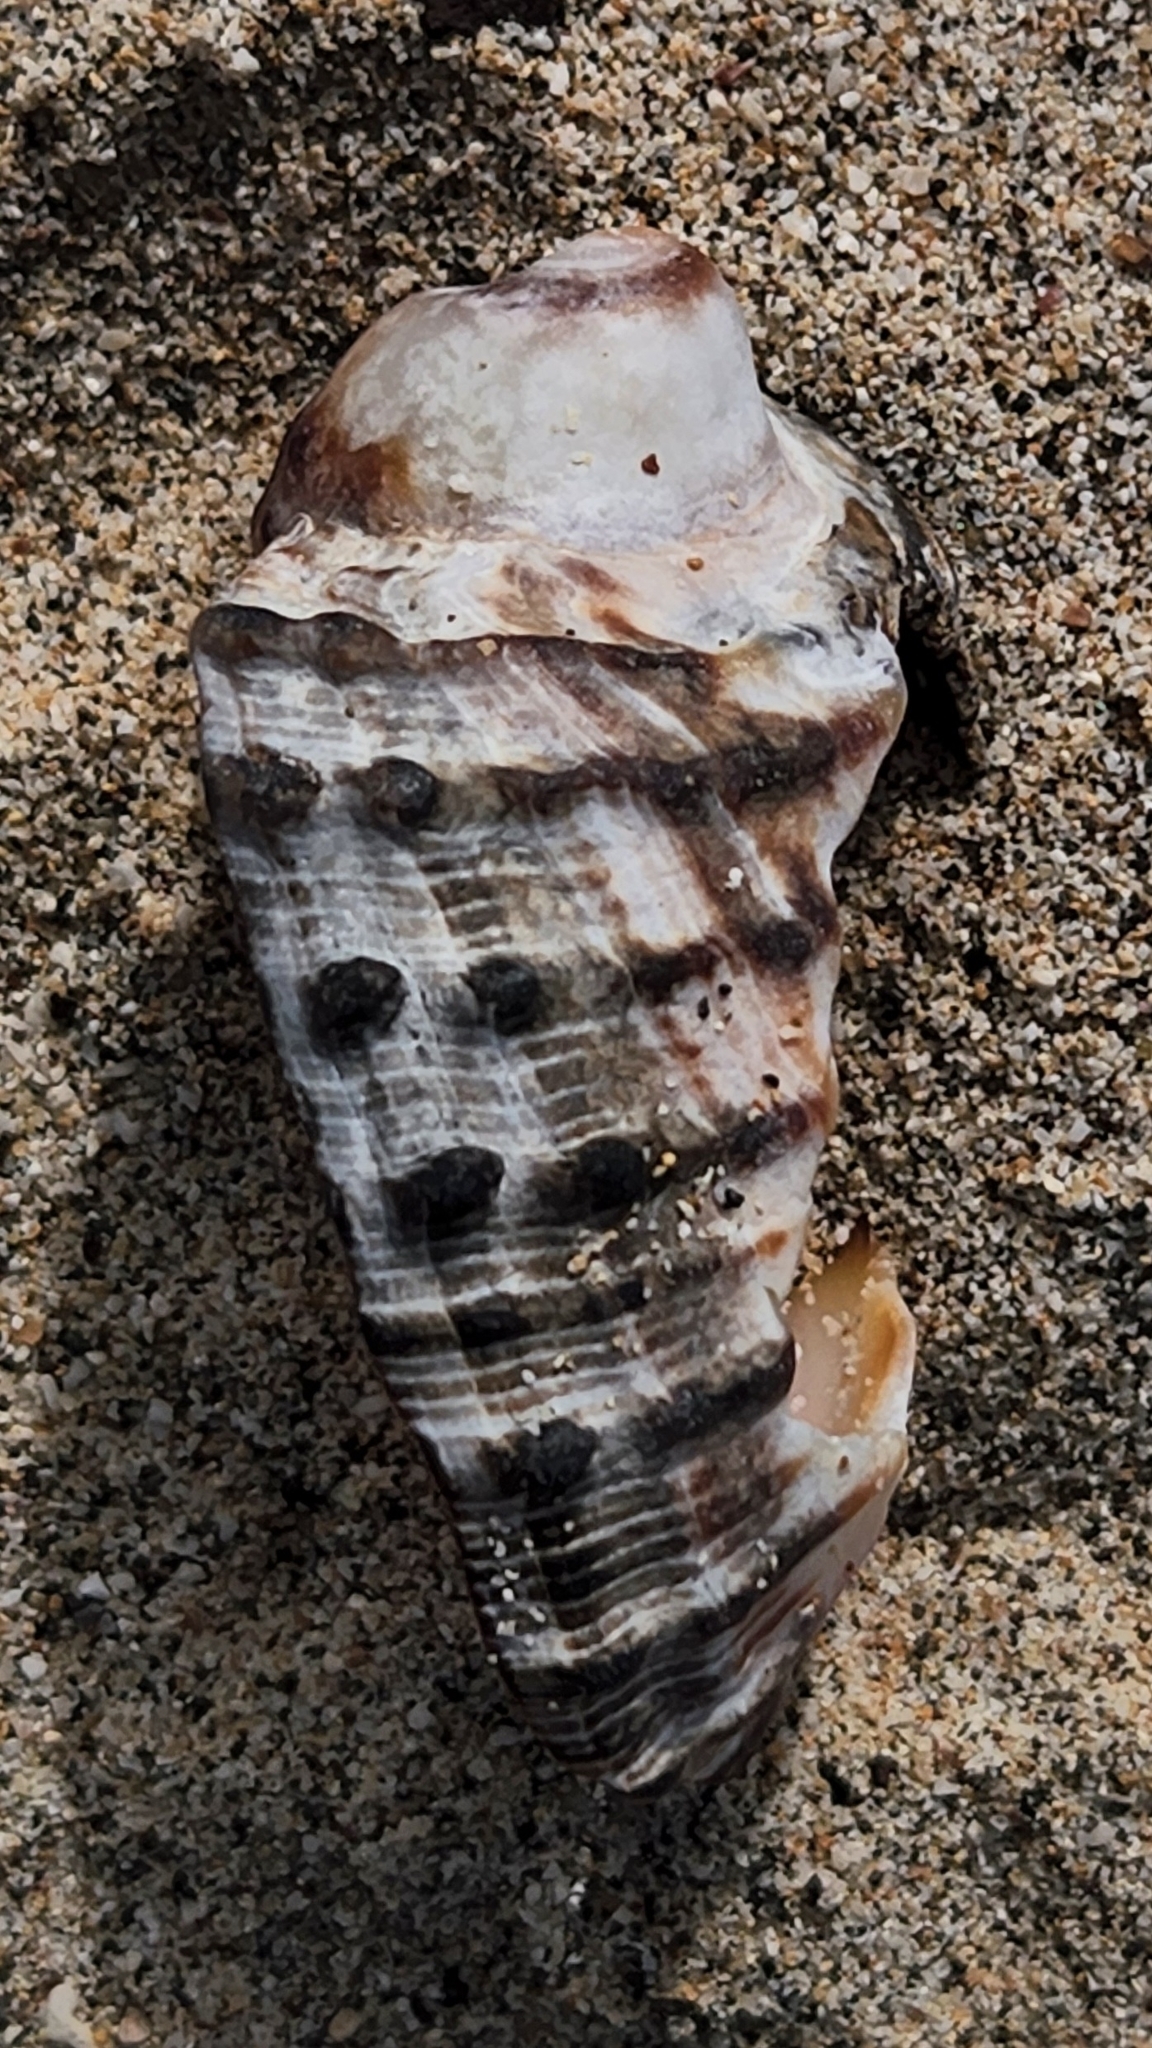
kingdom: Animalia
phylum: Mollusca
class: Gastropoda
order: Neogastropoda
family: Muricidae
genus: Plicopurpura
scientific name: Plicopurpura columellaris
